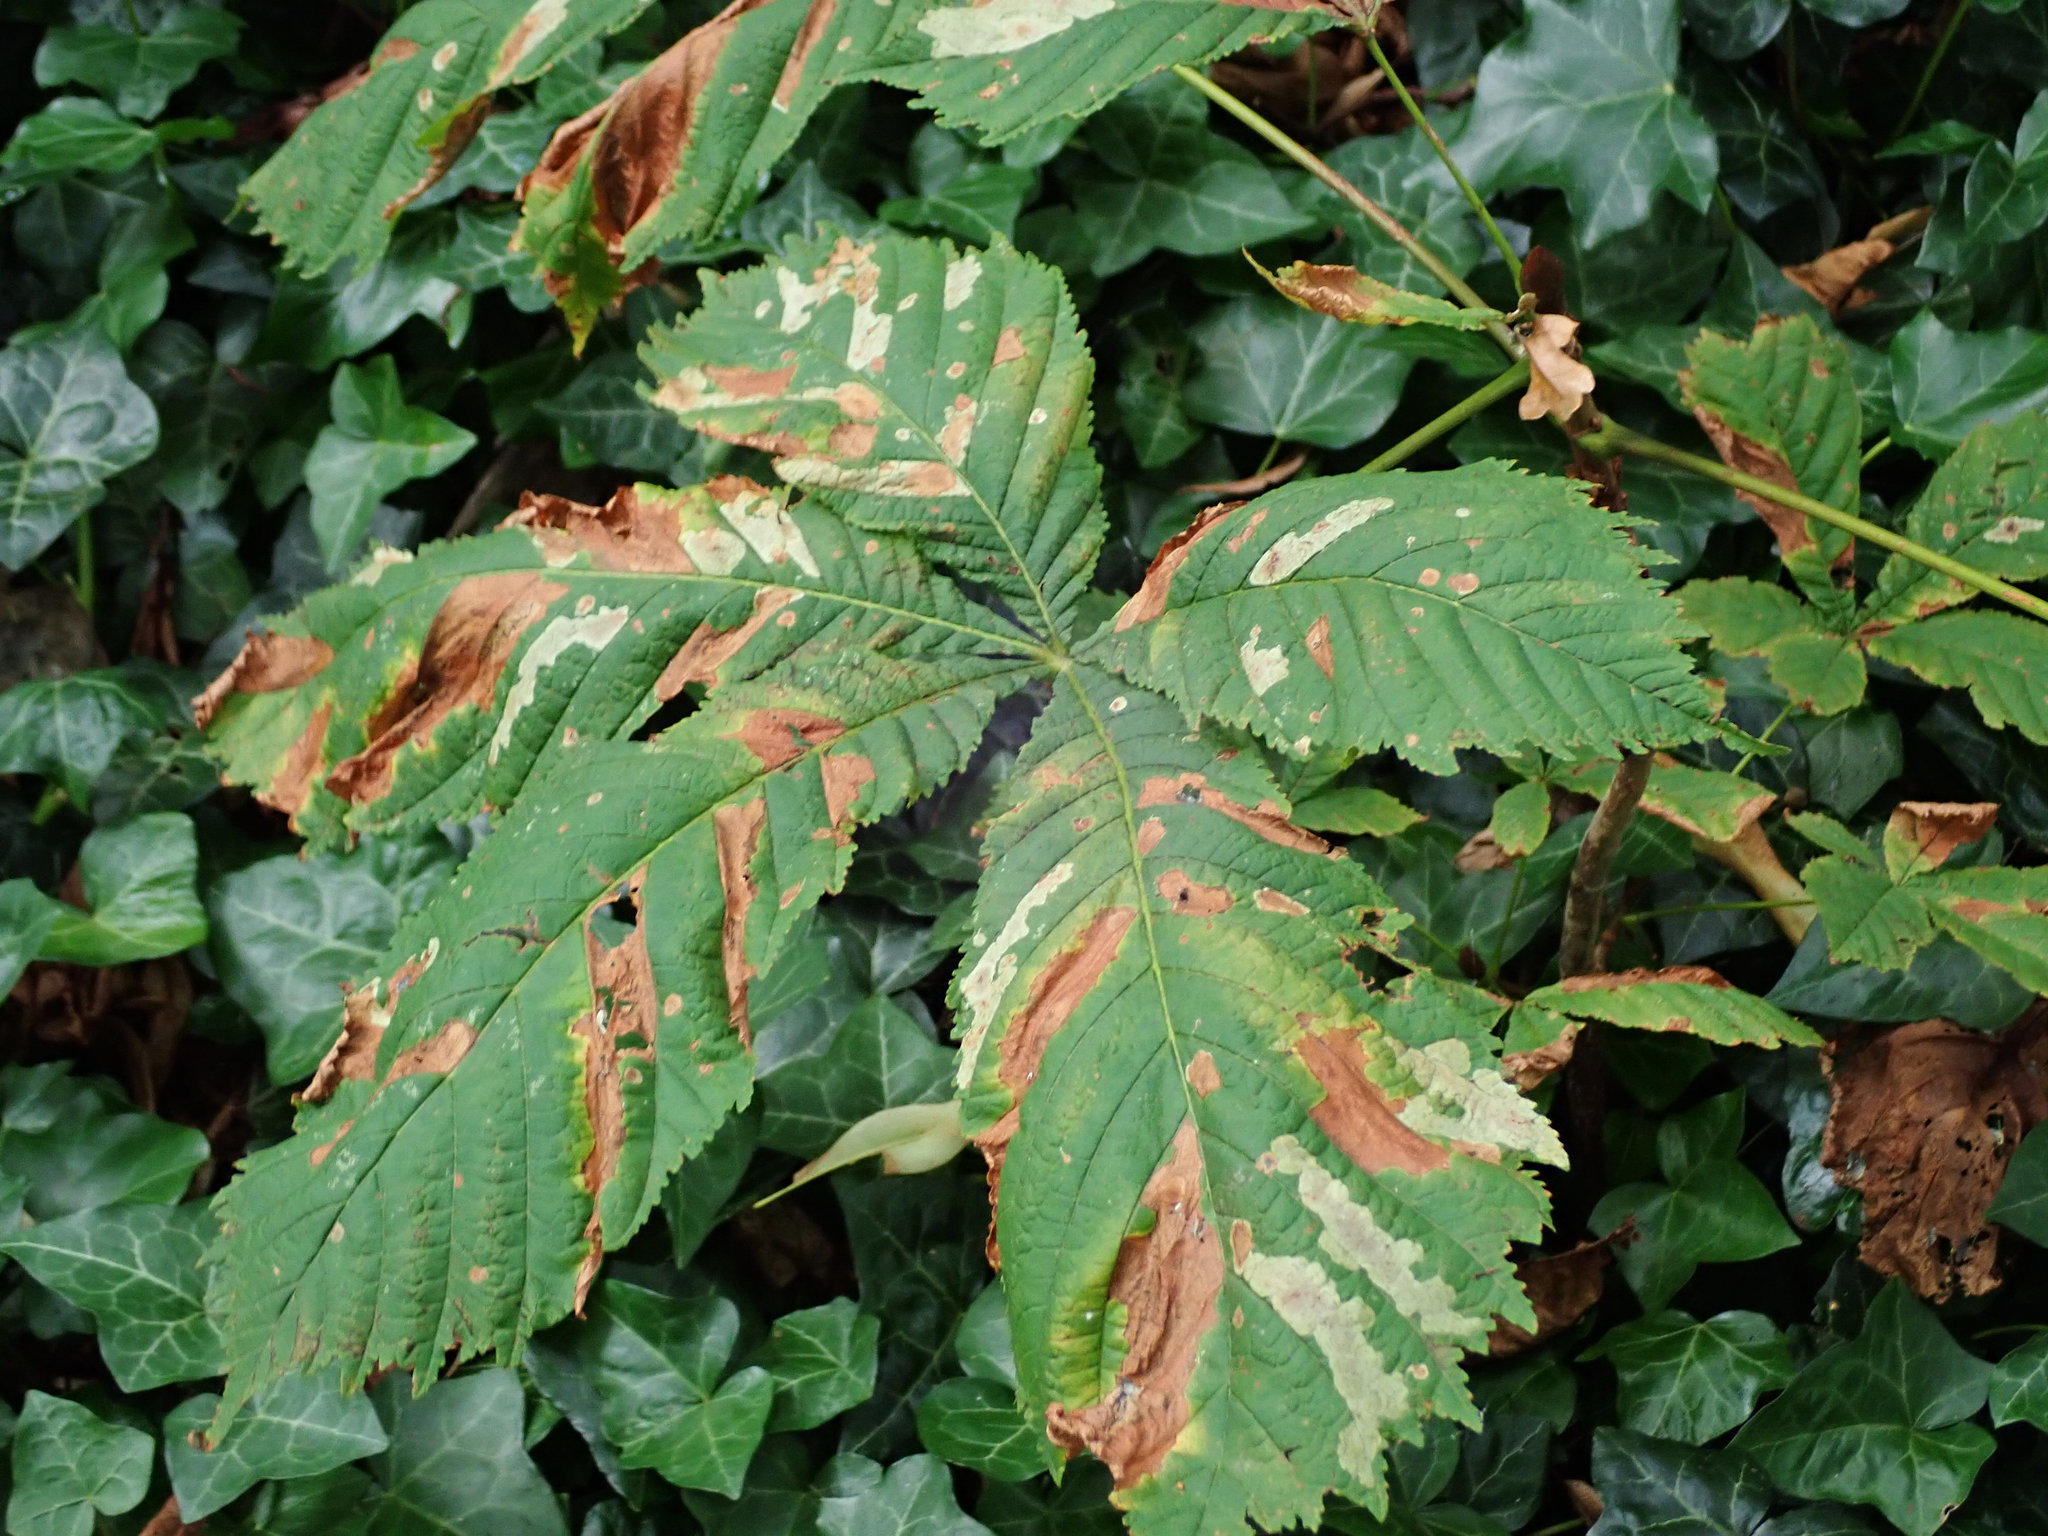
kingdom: Plantae
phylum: Tracheophyta
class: Magnoliopsida
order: Sapindales
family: Sapindaceae
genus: Aesculus
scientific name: Aesculus hippocastanum
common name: Horse-chestnut
